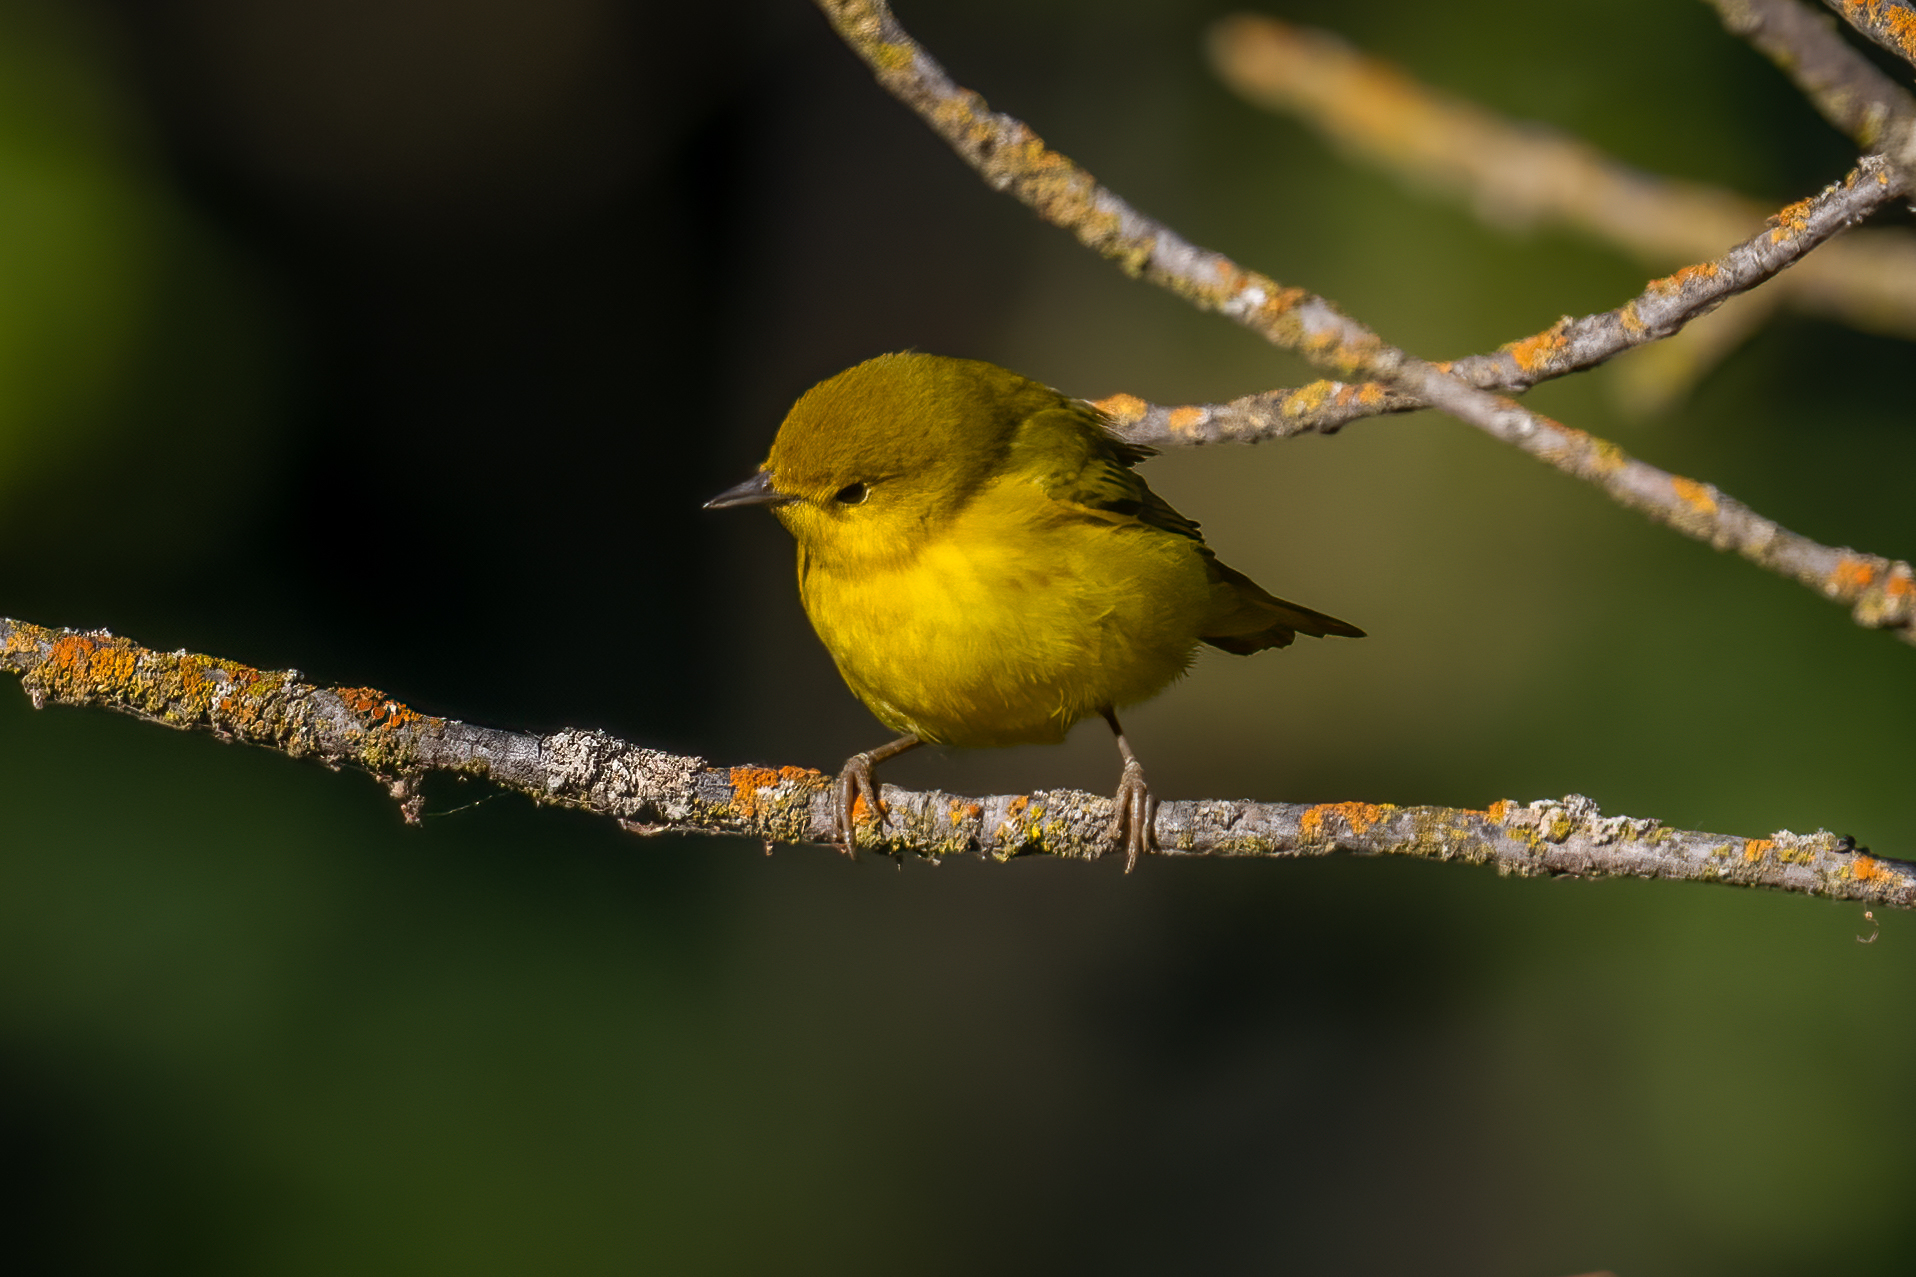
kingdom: Animalia
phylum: Chordata
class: Aves
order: Passeriformes
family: Parulidae
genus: Setophaga
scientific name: Setophaga petechia
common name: Yellow warbler
